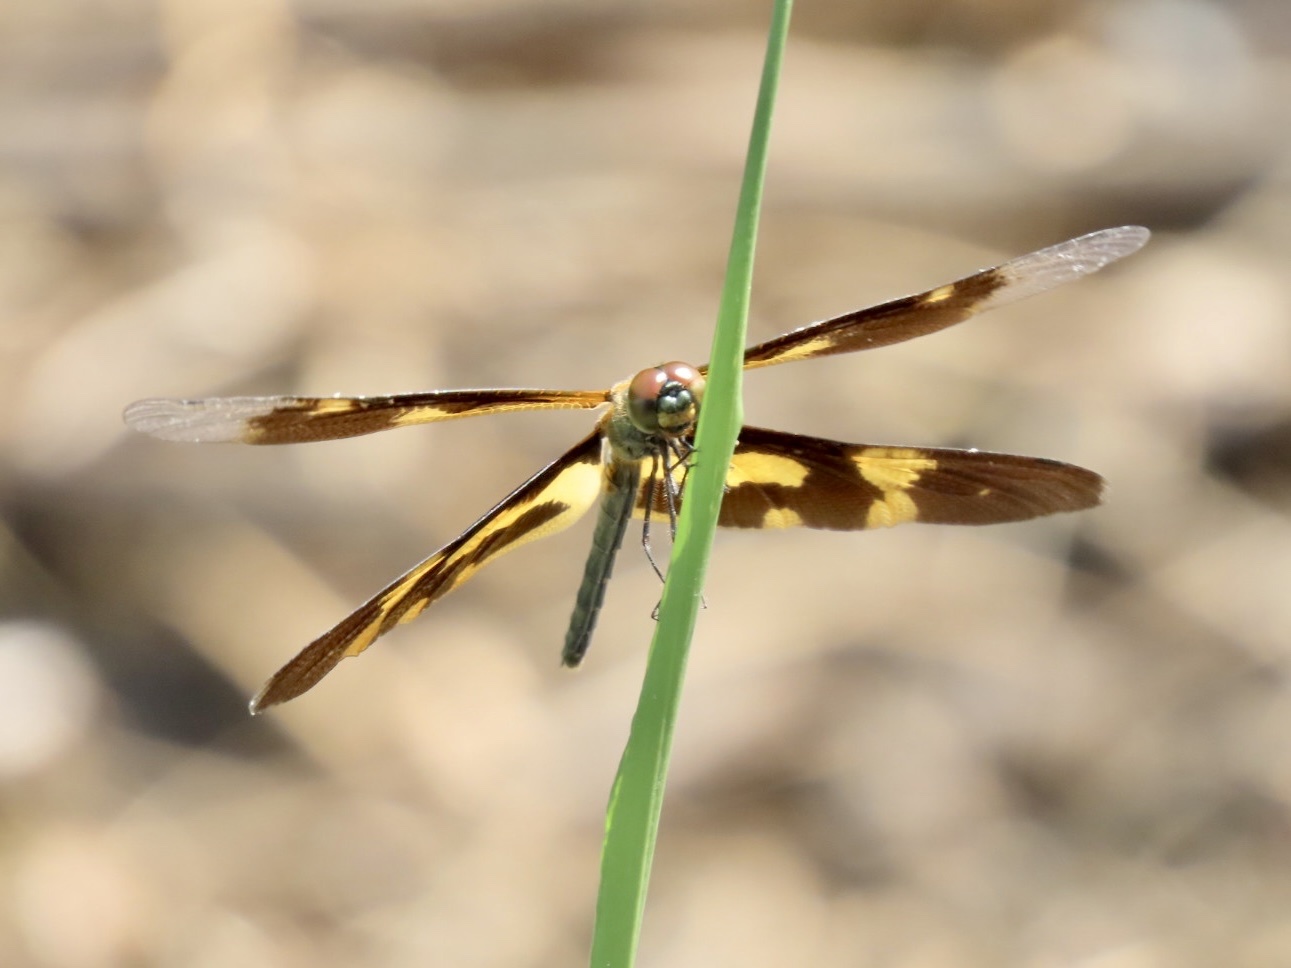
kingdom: Animalia
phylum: Arthropoda
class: Insecta
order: Odonata
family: Libellulidae
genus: Rhyothemis
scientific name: Rhyothemis variegata
